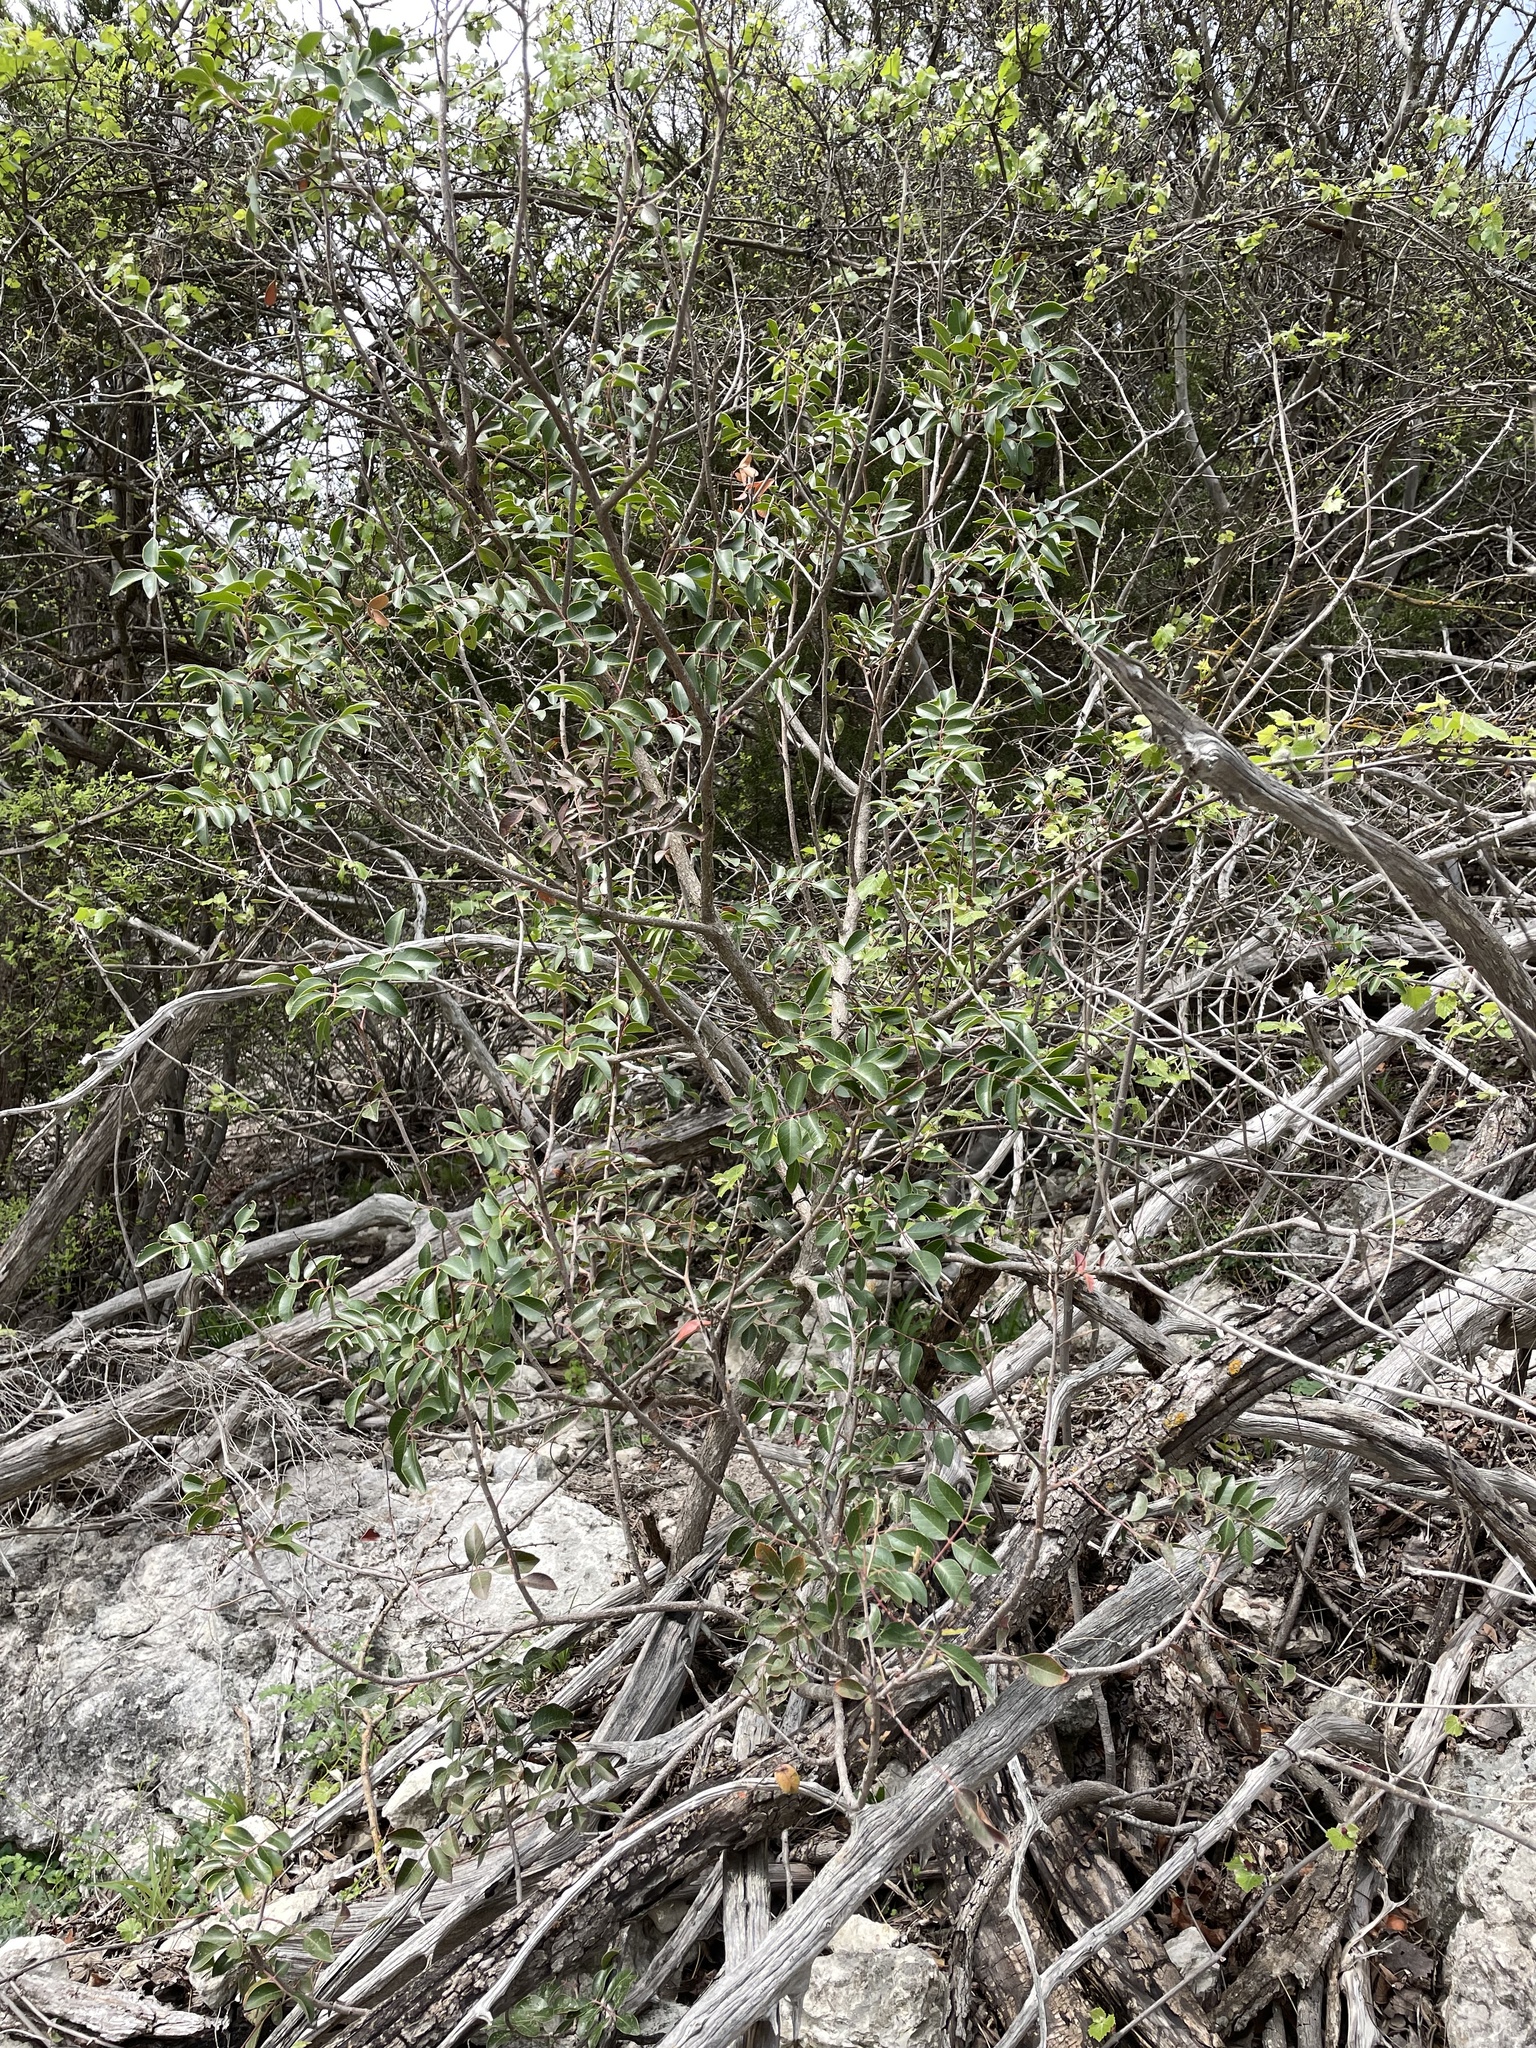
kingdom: Plantae
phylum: Tracheophyta
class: Magnoliopsida
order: Sapindales
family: Anacardiaceae
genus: Rhus
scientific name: Rhus virens
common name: Evergreen sumac
